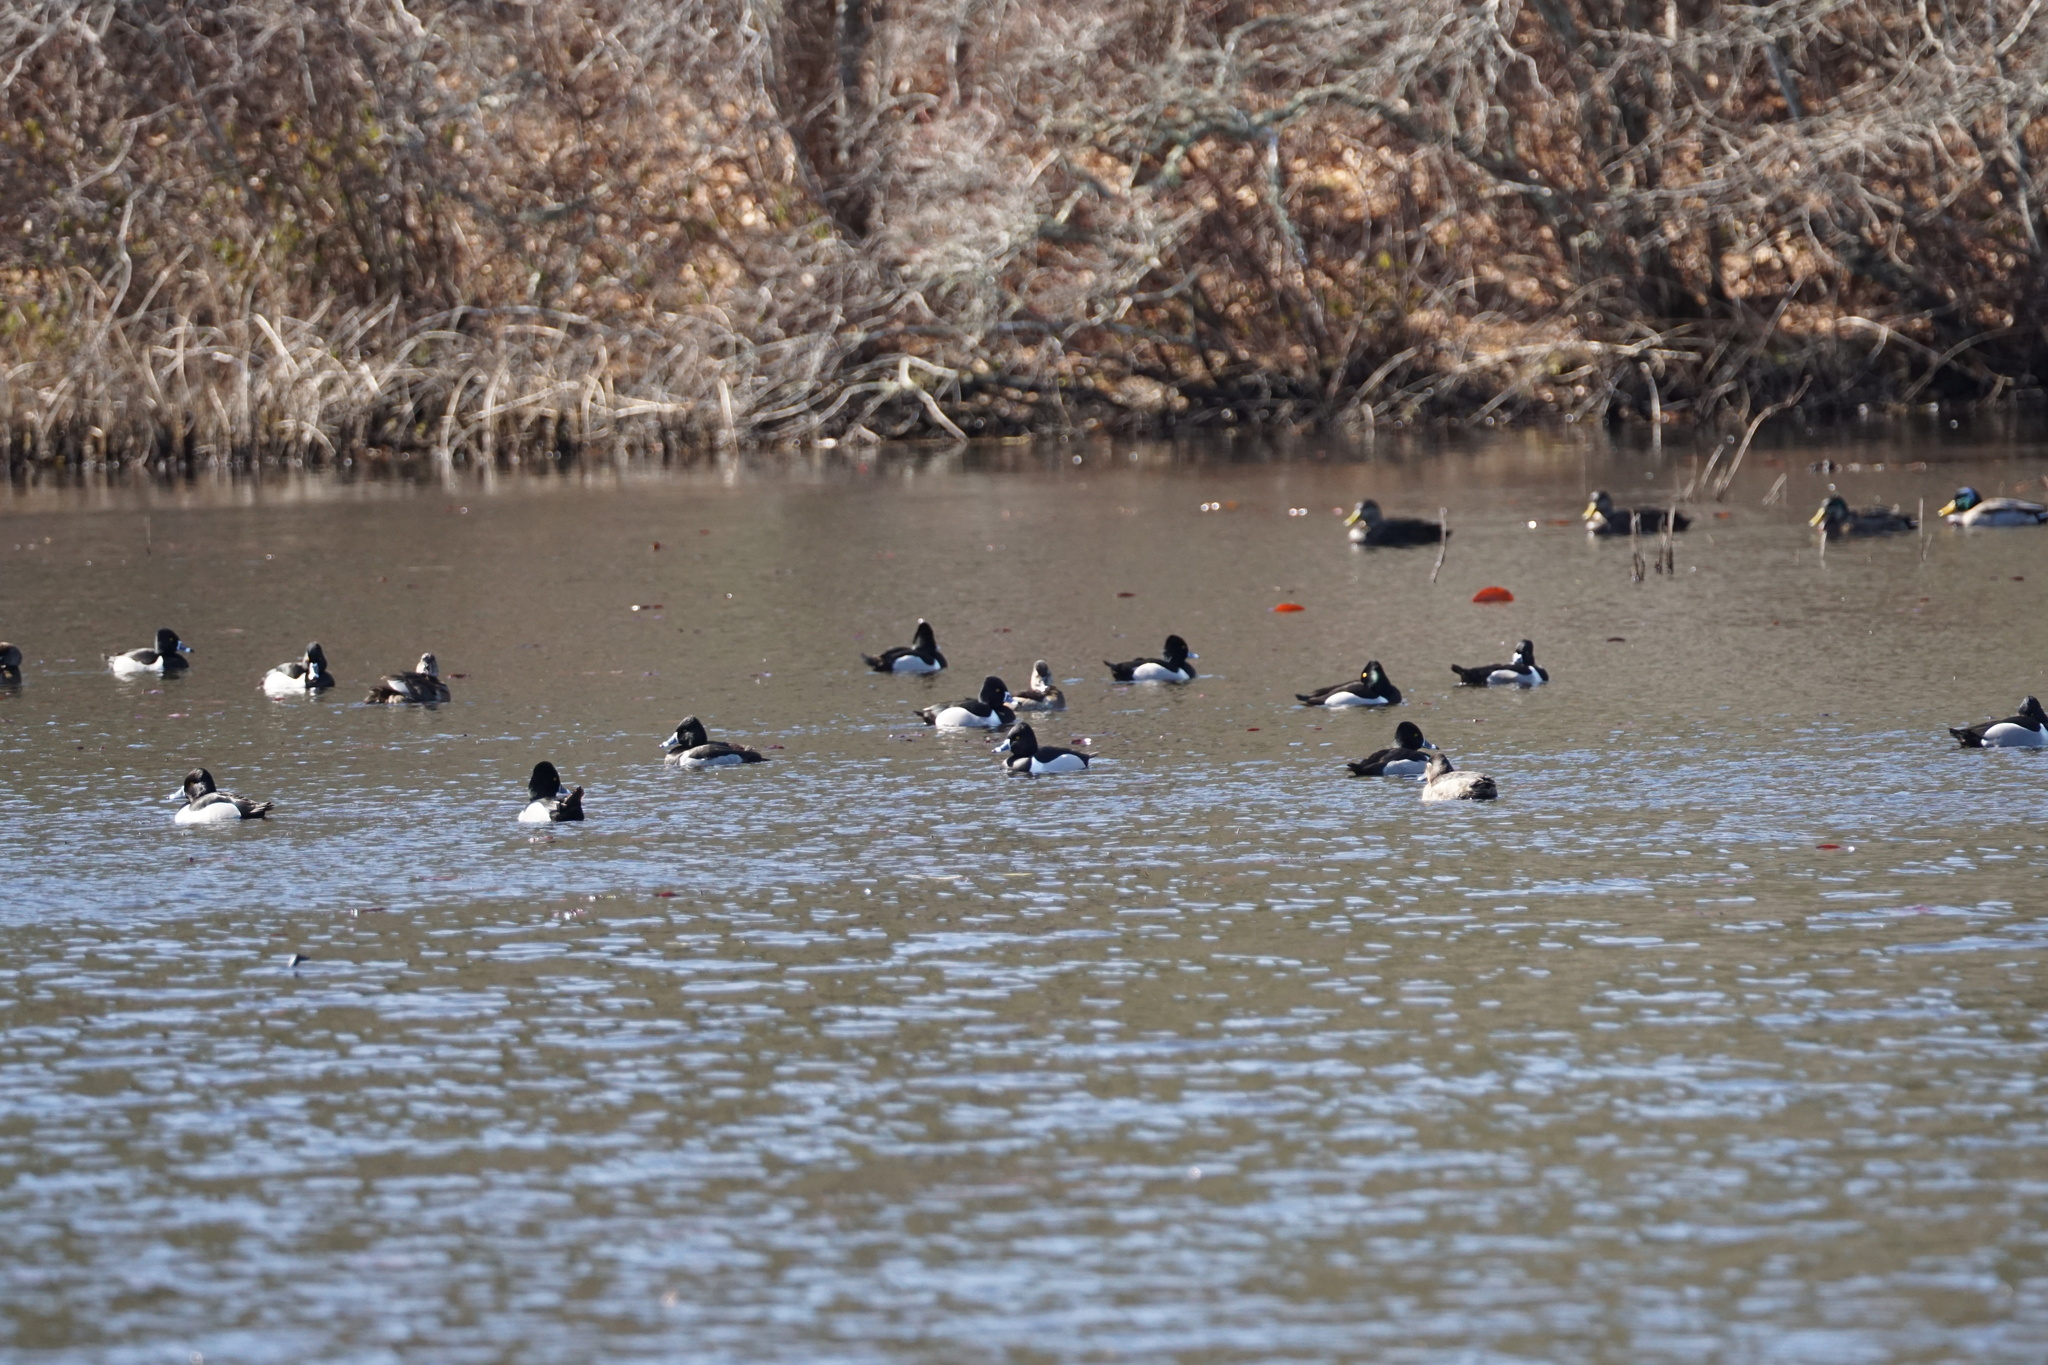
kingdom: Animalia
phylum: Chordata
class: Aves
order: Anseriformes
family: Anatidae
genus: Aythya
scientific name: Aythya collaris
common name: Ring-necked duck
